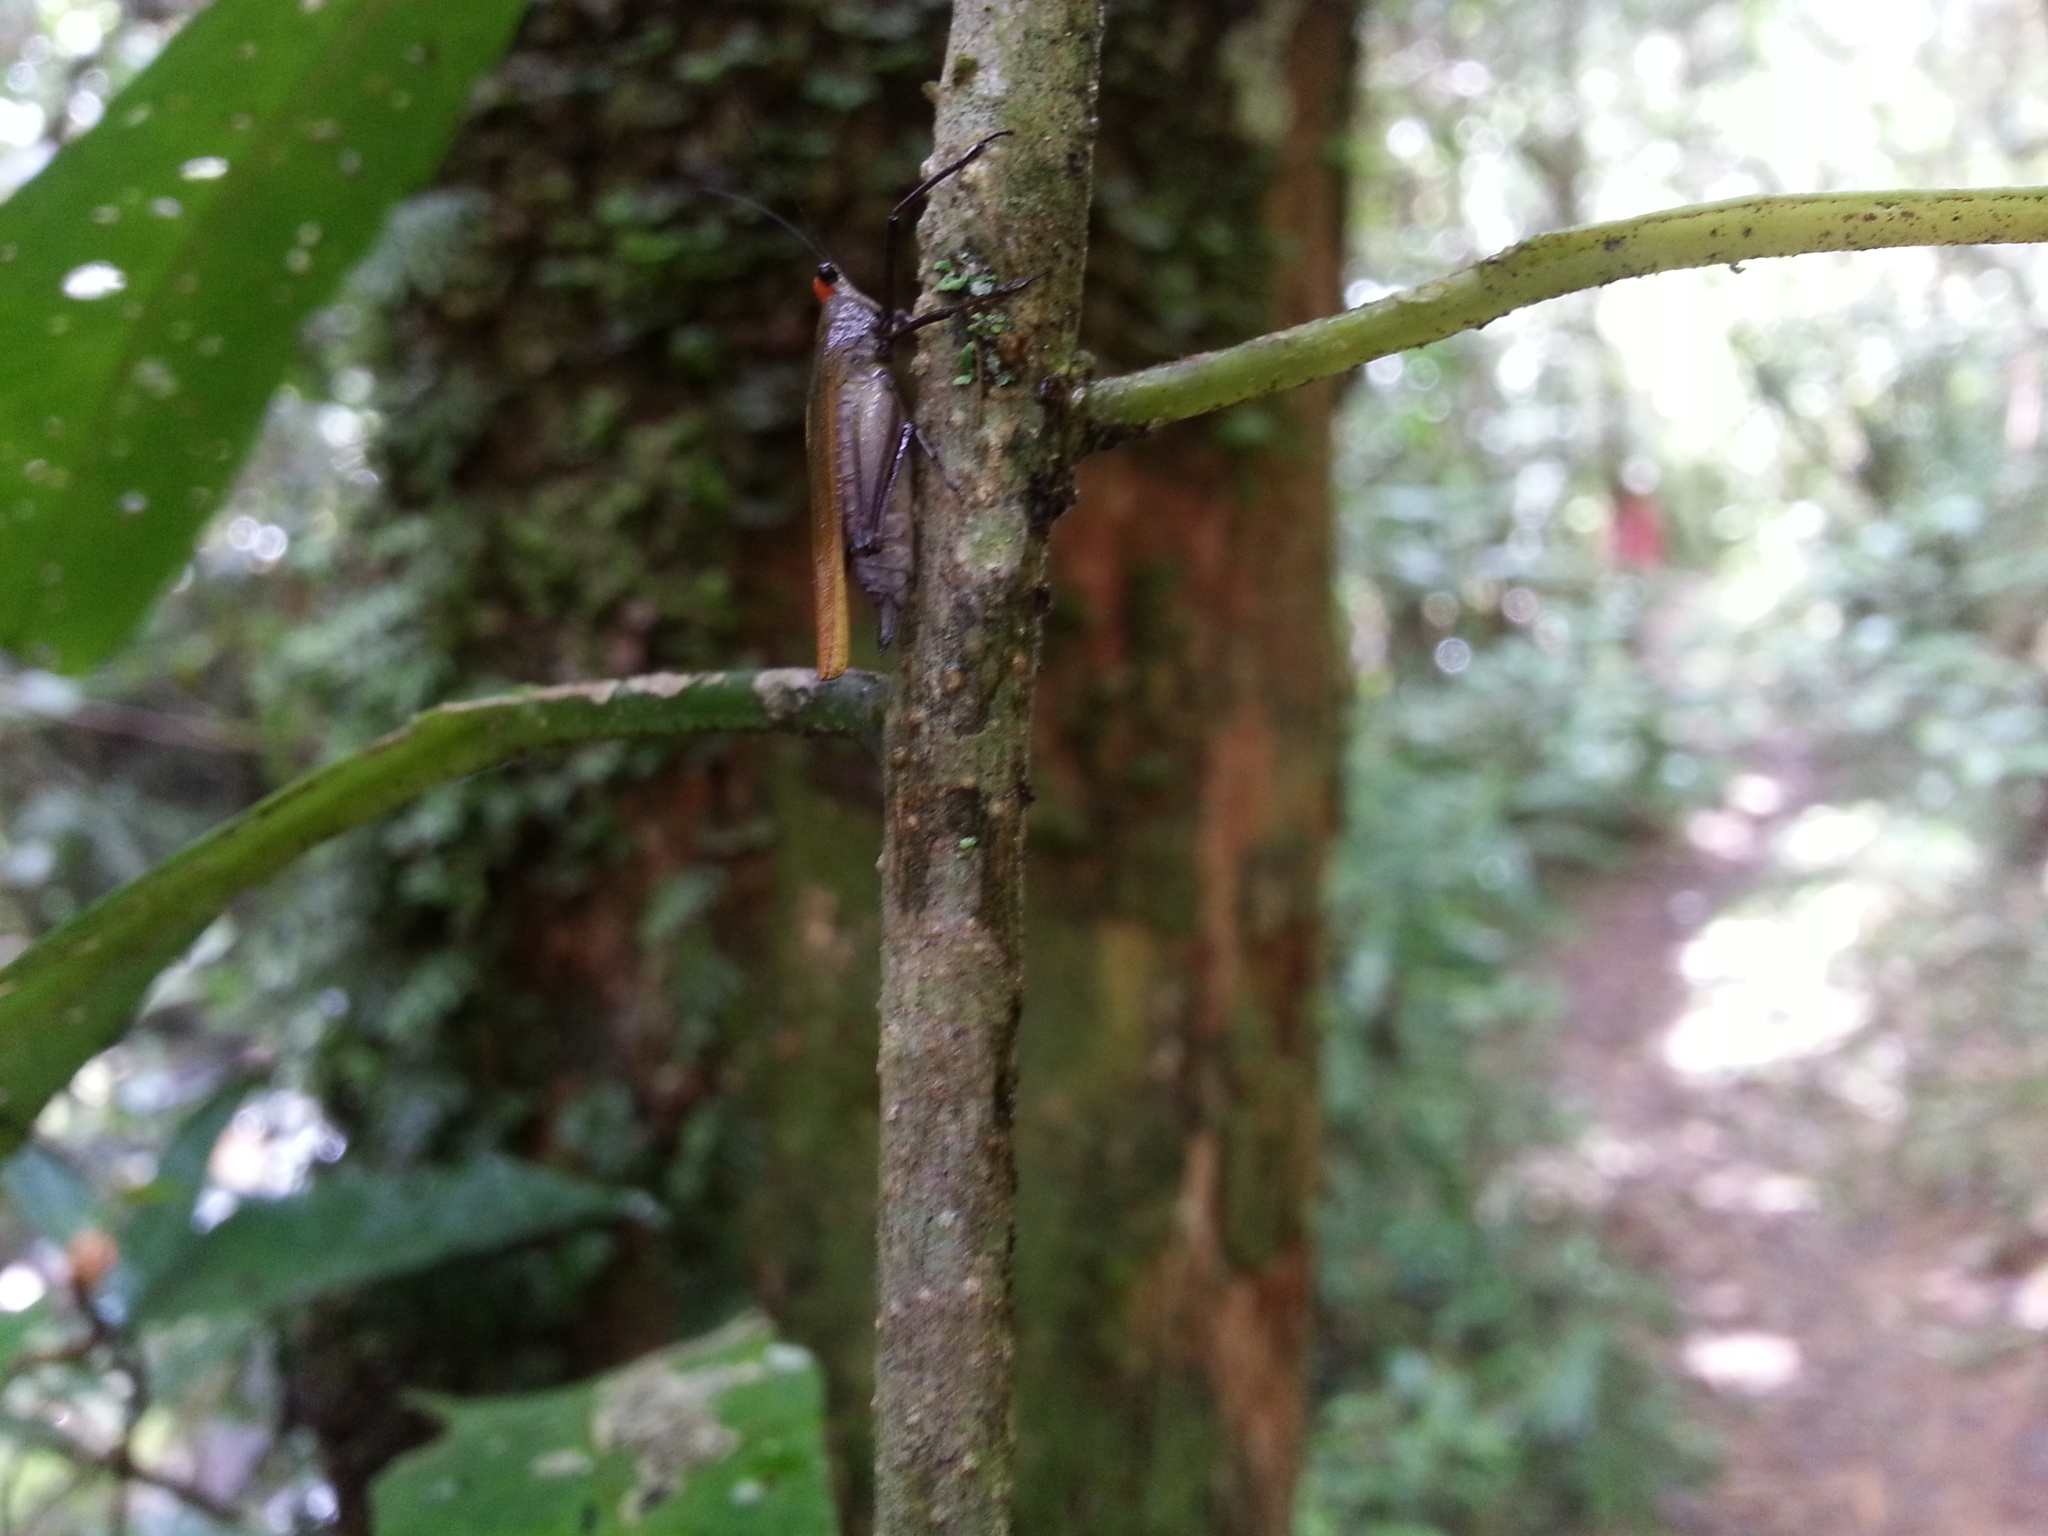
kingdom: Animalia
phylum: Arthropoda
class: Insecta
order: Orthoptera
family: Tetrigidae
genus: Arexion
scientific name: Arexion suavis
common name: Redneck pygmy grasshopper
